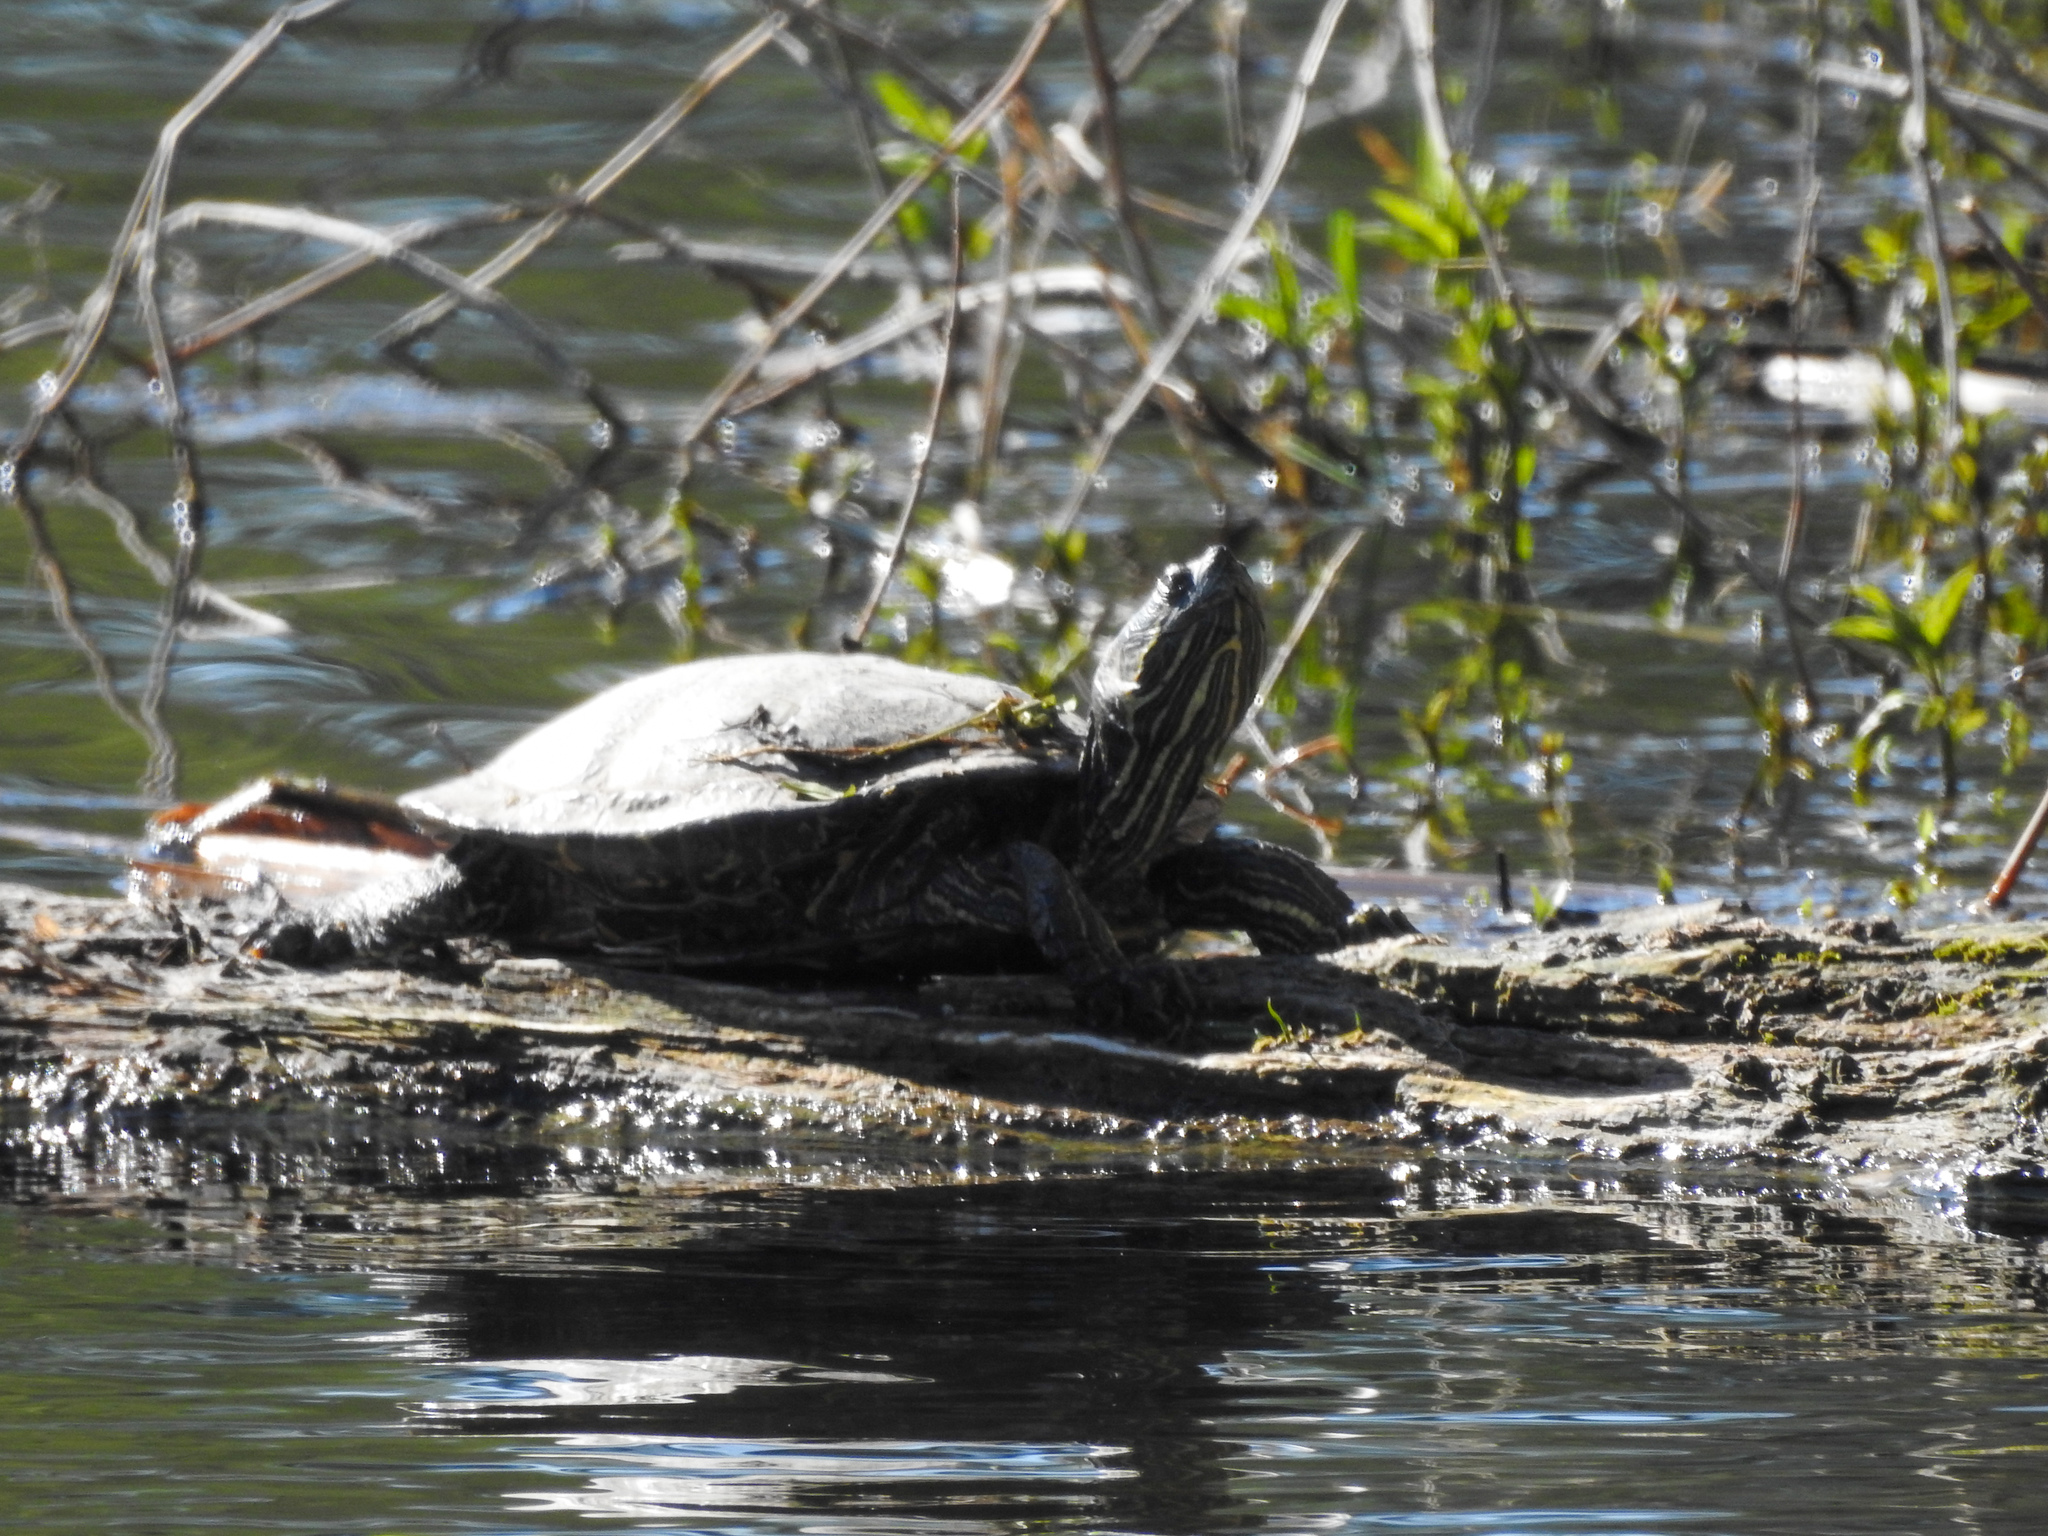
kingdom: Animalia
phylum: Chordata
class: Testudines
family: Emydidae
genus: Chrysemys
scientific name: Chrysemys picta
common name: Painted turtle
